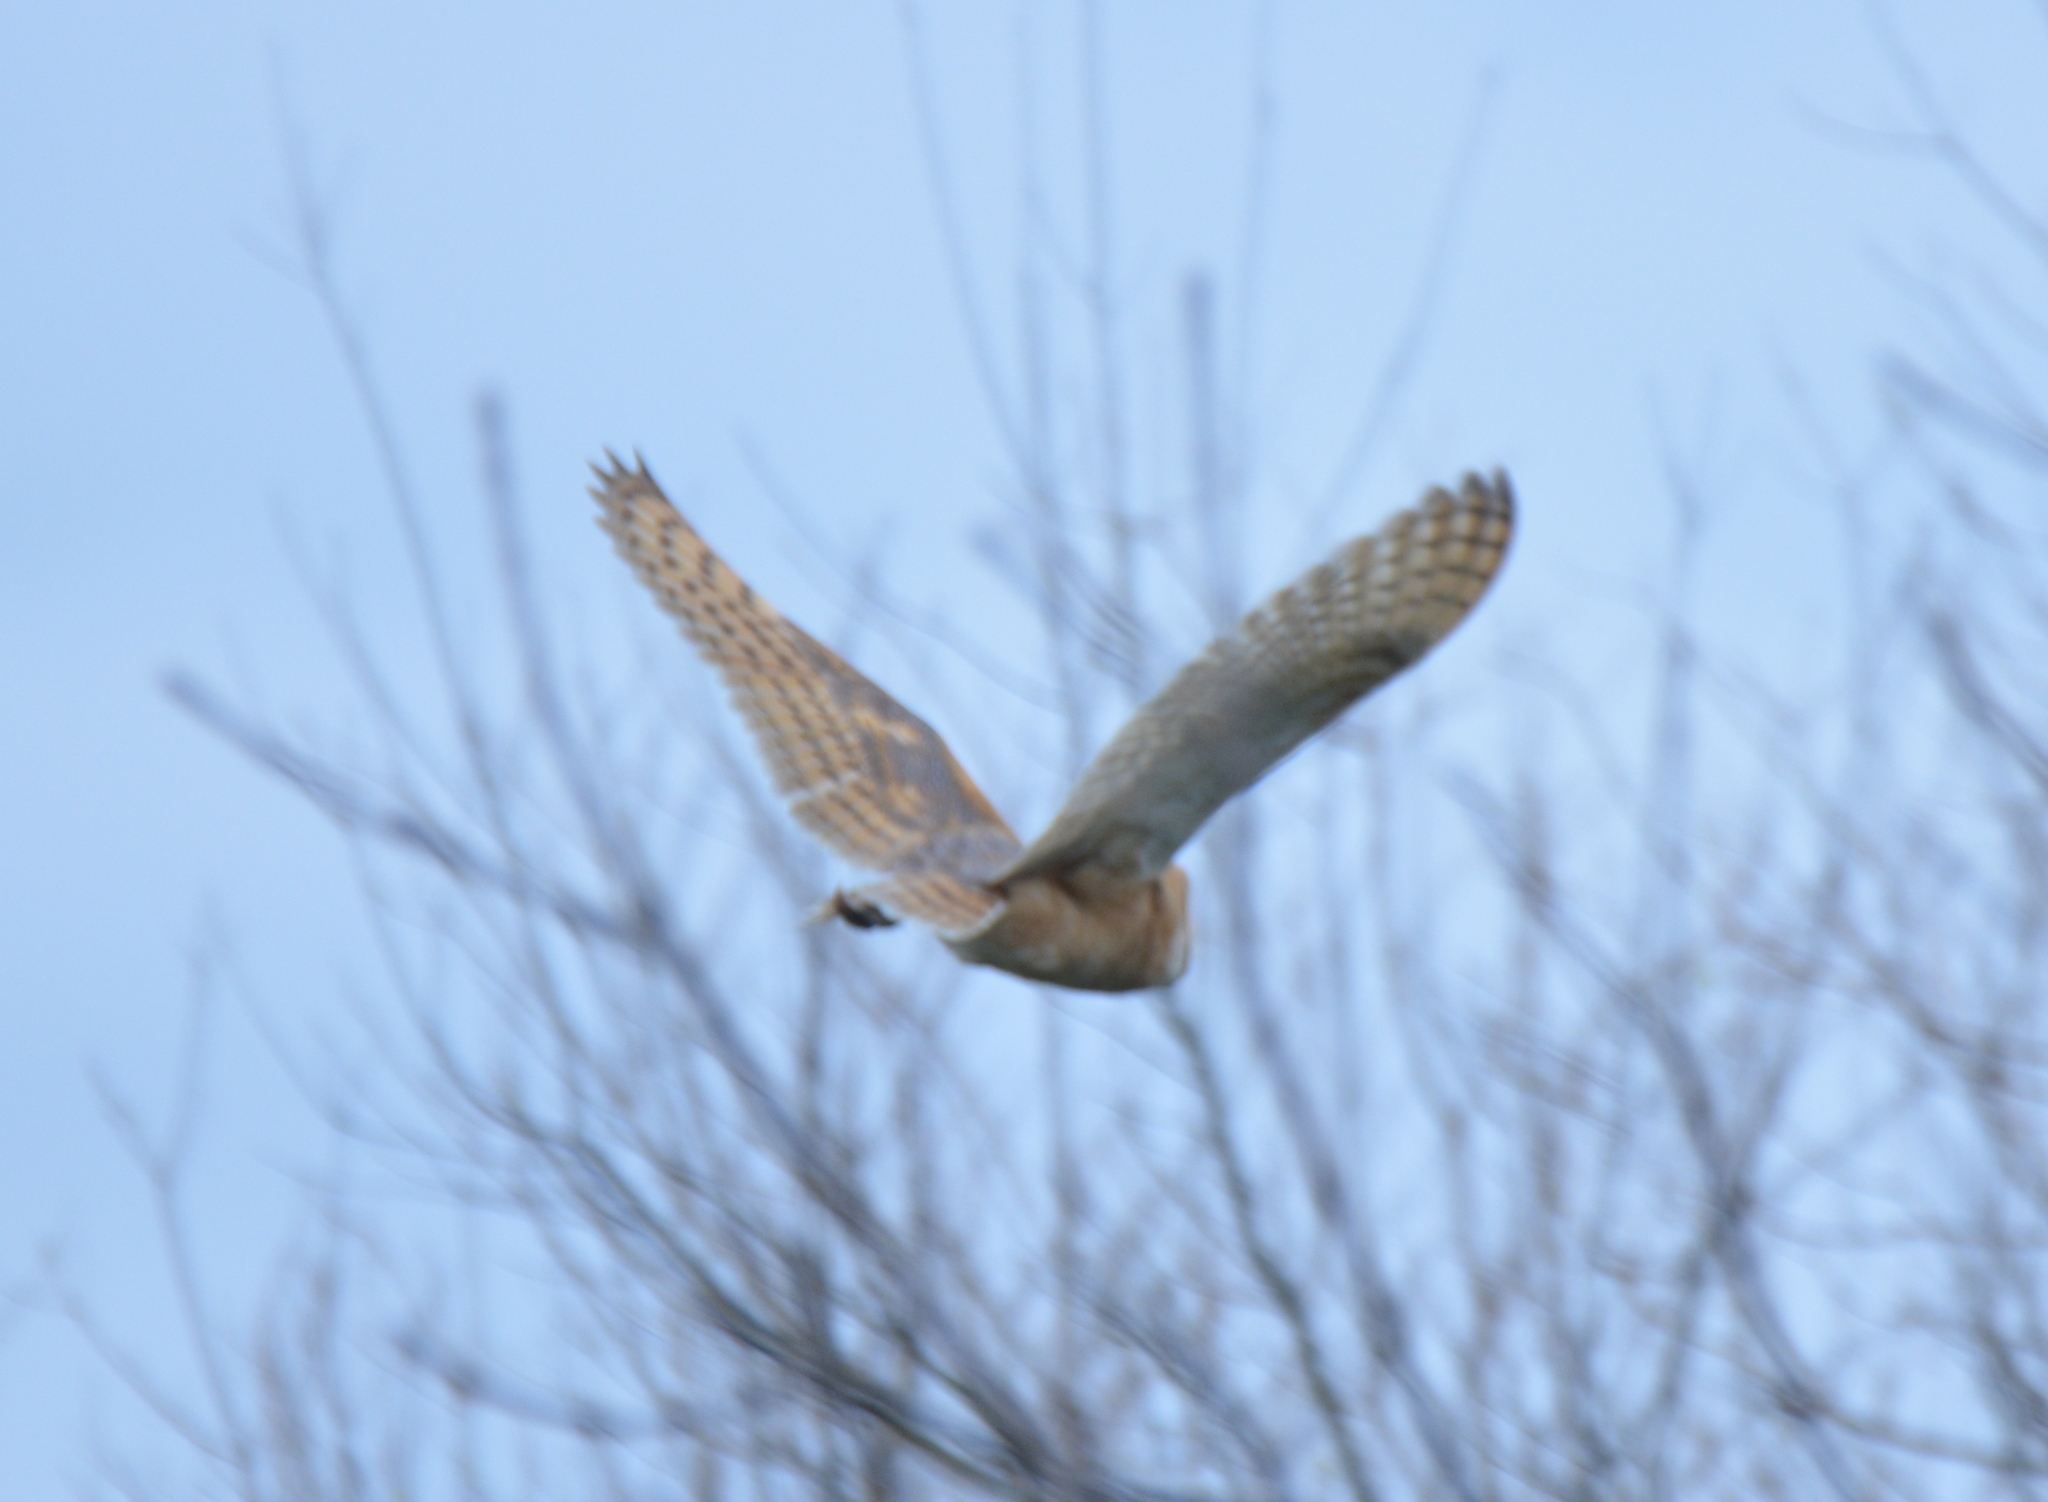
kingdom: Animalia
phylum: Chordata
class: Aves
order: Strigiformes
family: Tytonidae
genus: Tyto
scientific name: Tyto alba
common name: Barn owl
